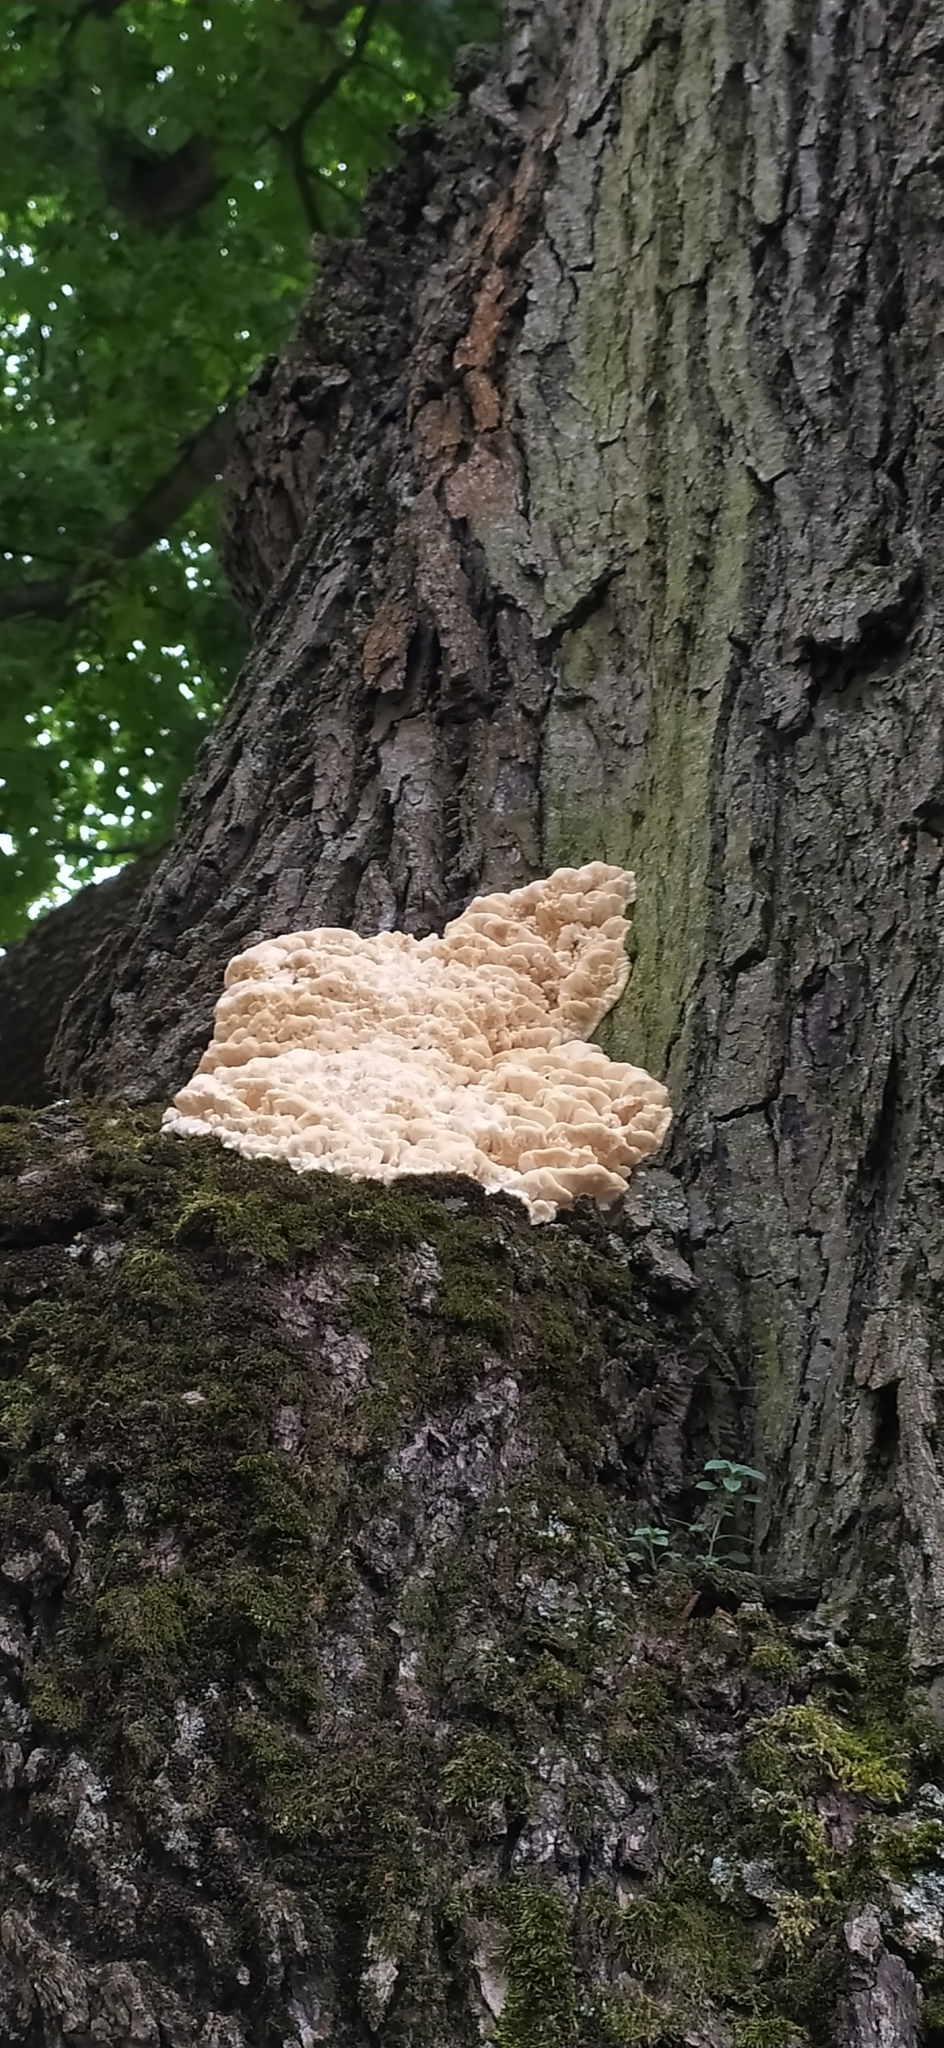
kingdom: Fungi
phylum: Basidiomycota
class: Agaricomycetes
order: Polyporales
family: Laetiporaceae
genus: Laetiporus
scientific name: Laetiporus sulphureus
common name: Chicken of the woods
